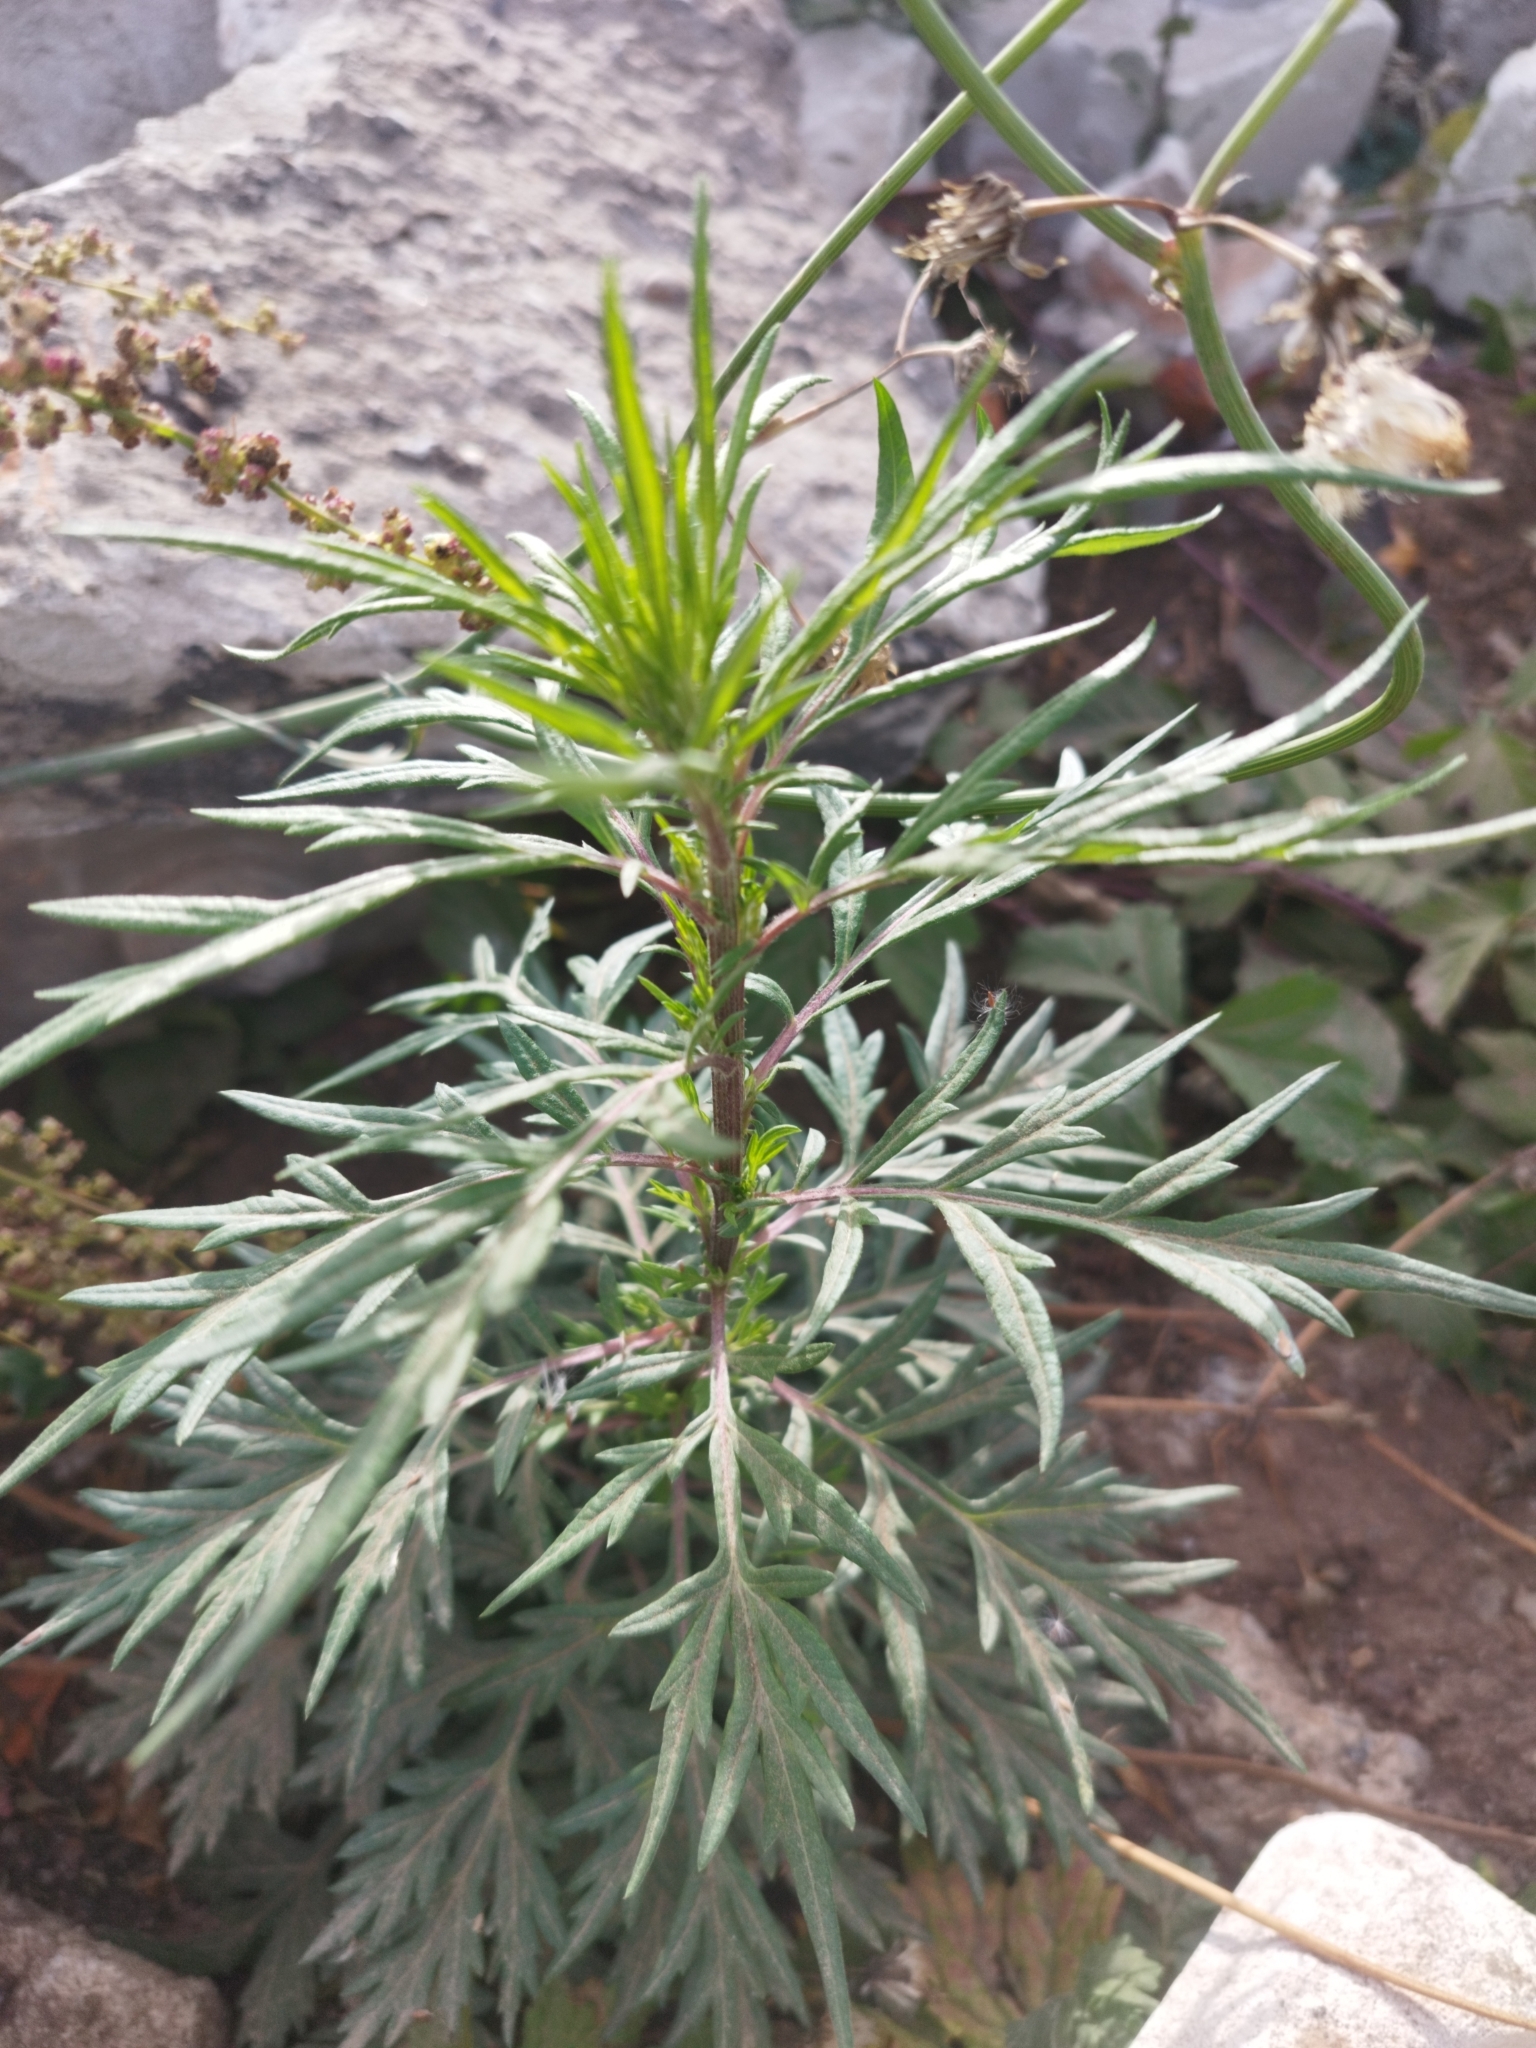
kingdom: Plantae
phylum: Tracheophyta
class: Magnoliopsida
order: Asterales
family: Asteraceae
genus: Artemisia
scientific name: Artemisia vulgaris
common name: Mugwort
